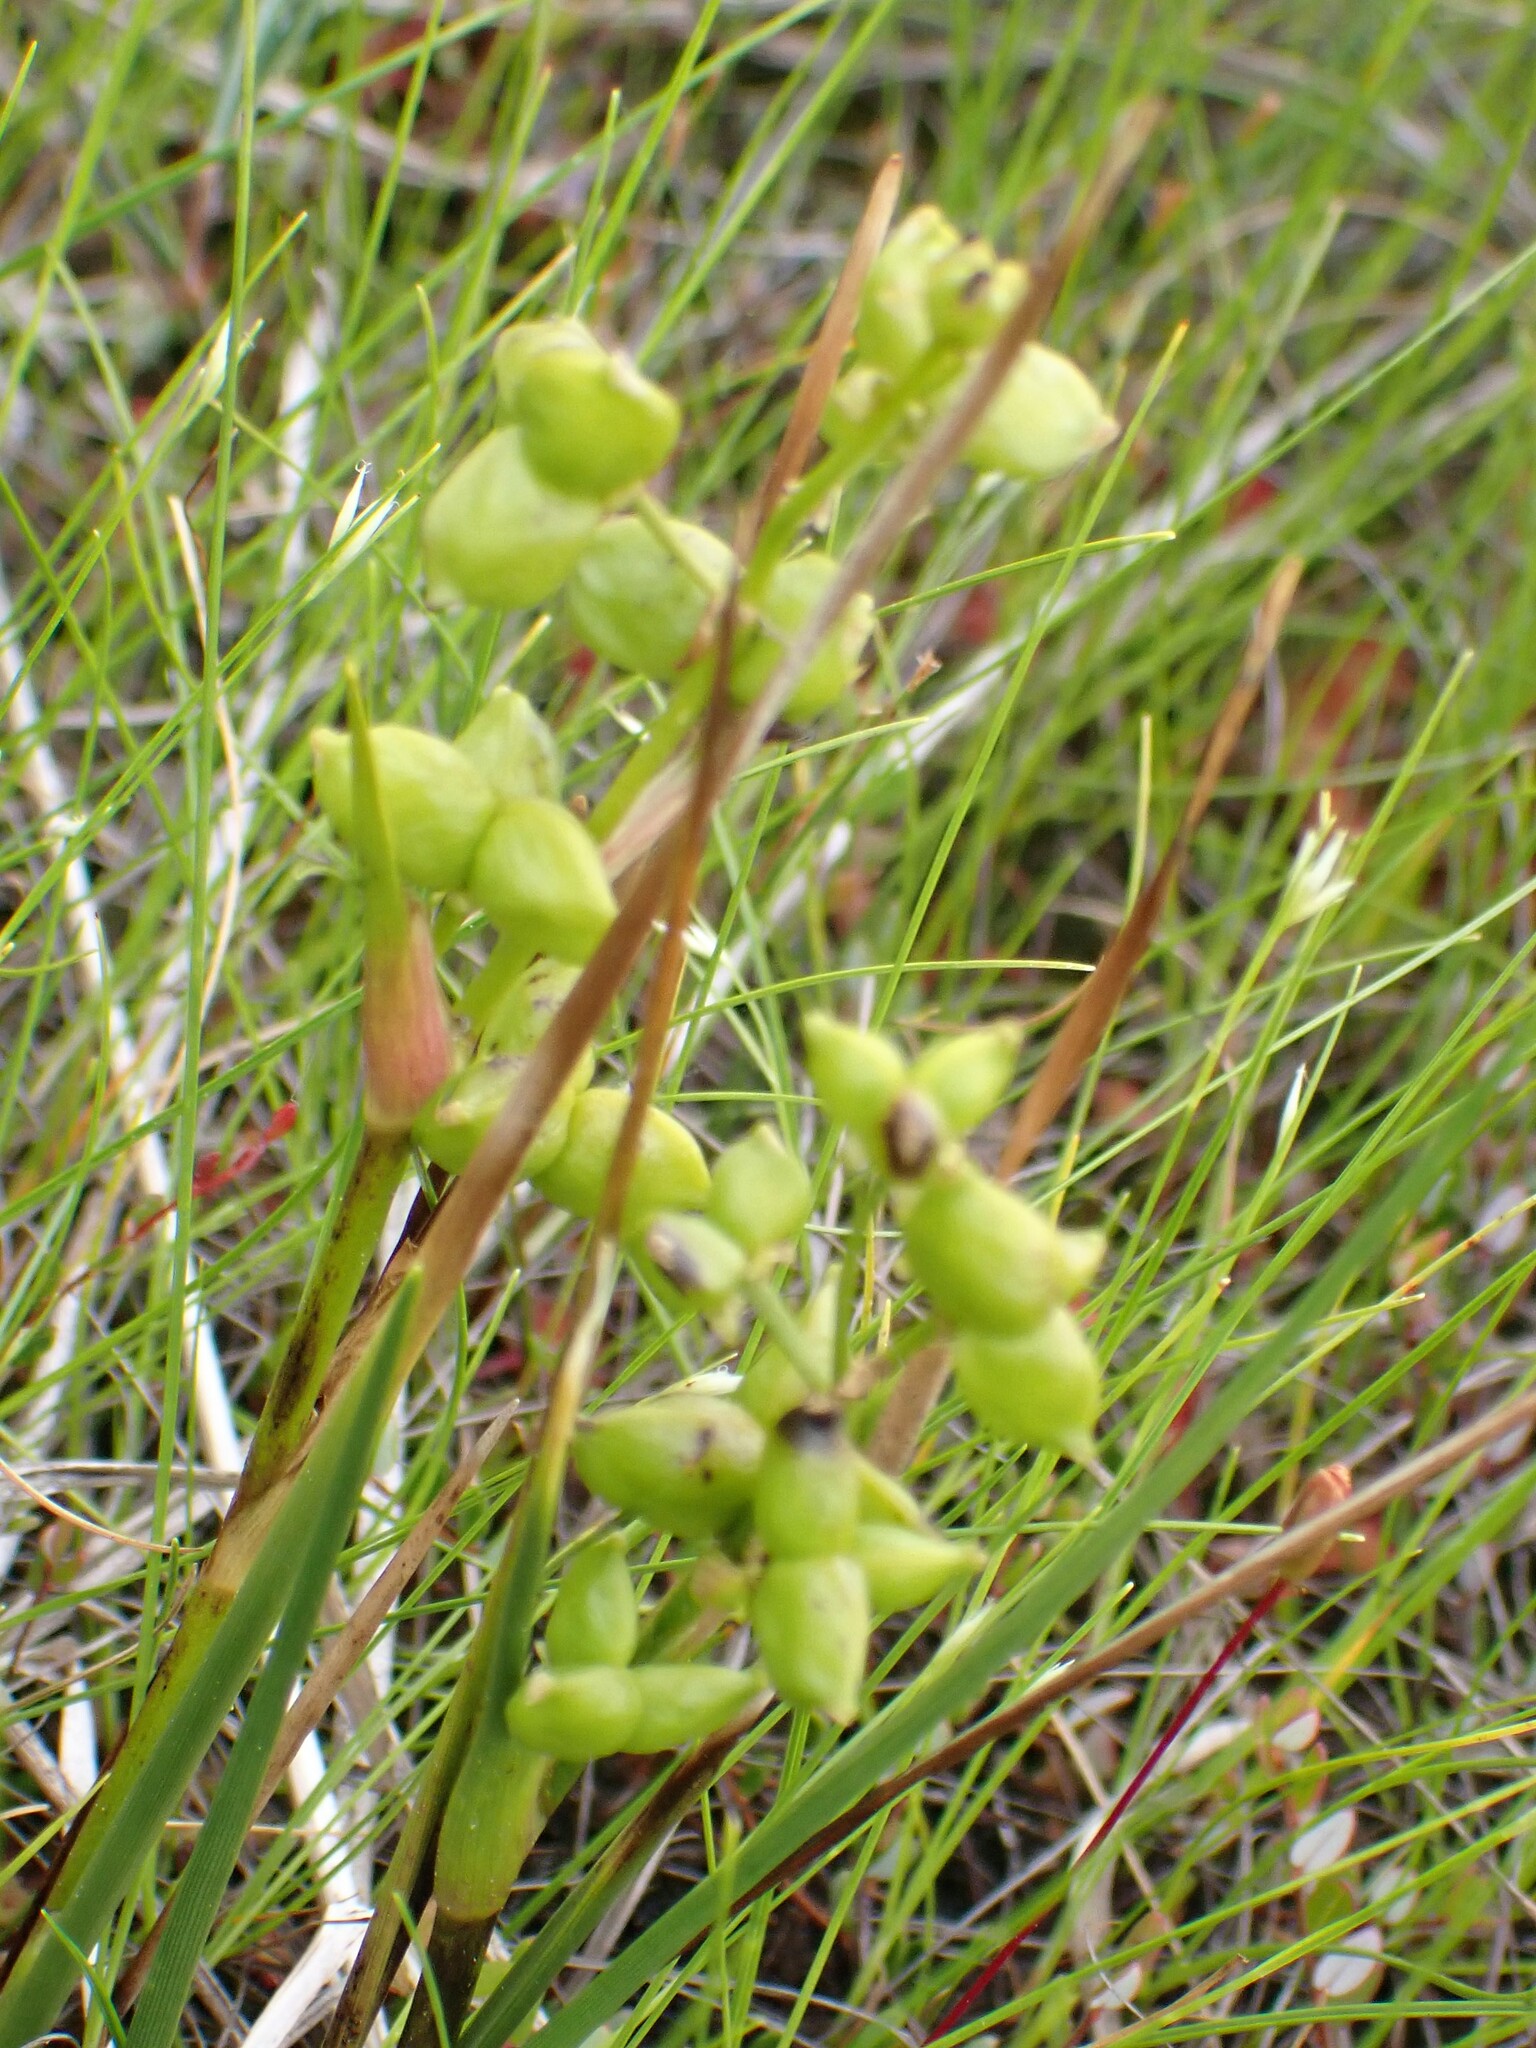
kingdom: Plantae
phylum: Tracheophyta
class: Liliopsida
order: Alismatales
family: Scheuchzeriaceae
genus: Scheuchzeria
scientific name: Scheuchzeria palustris
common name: Rannoch-rush
